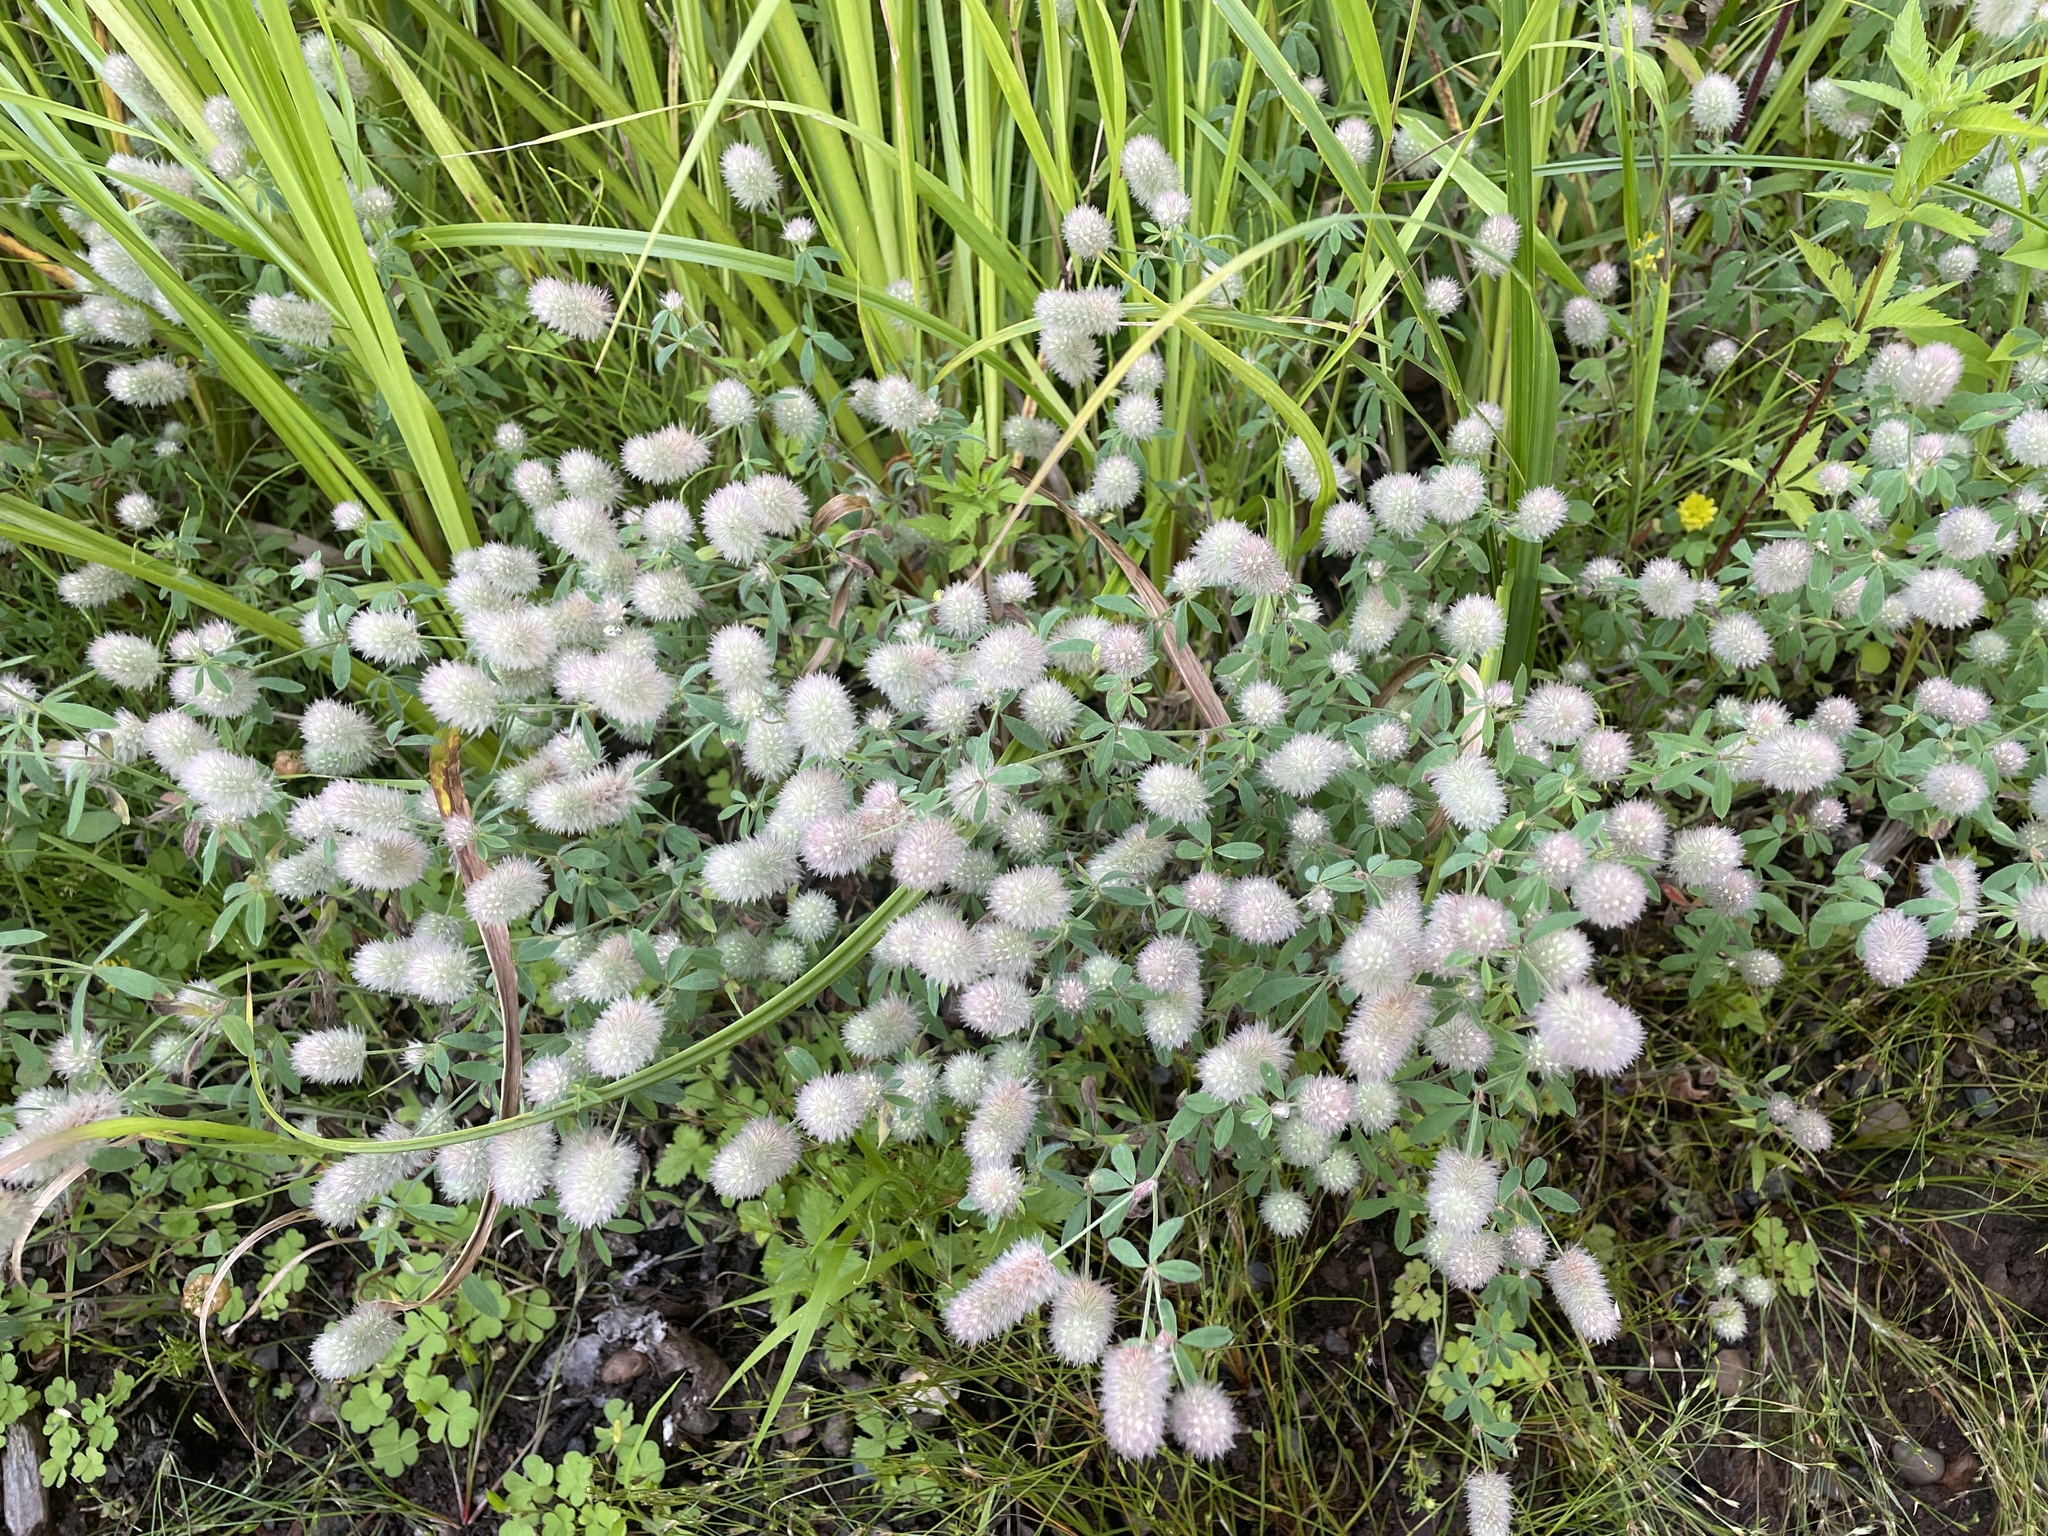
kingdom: Plantae
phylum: Tracheophyta
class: Magnoliopsida
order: Fabales
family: Fabaceae
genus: Trifolium
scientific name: Trifolium arvense
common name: Hare's-foot clover
